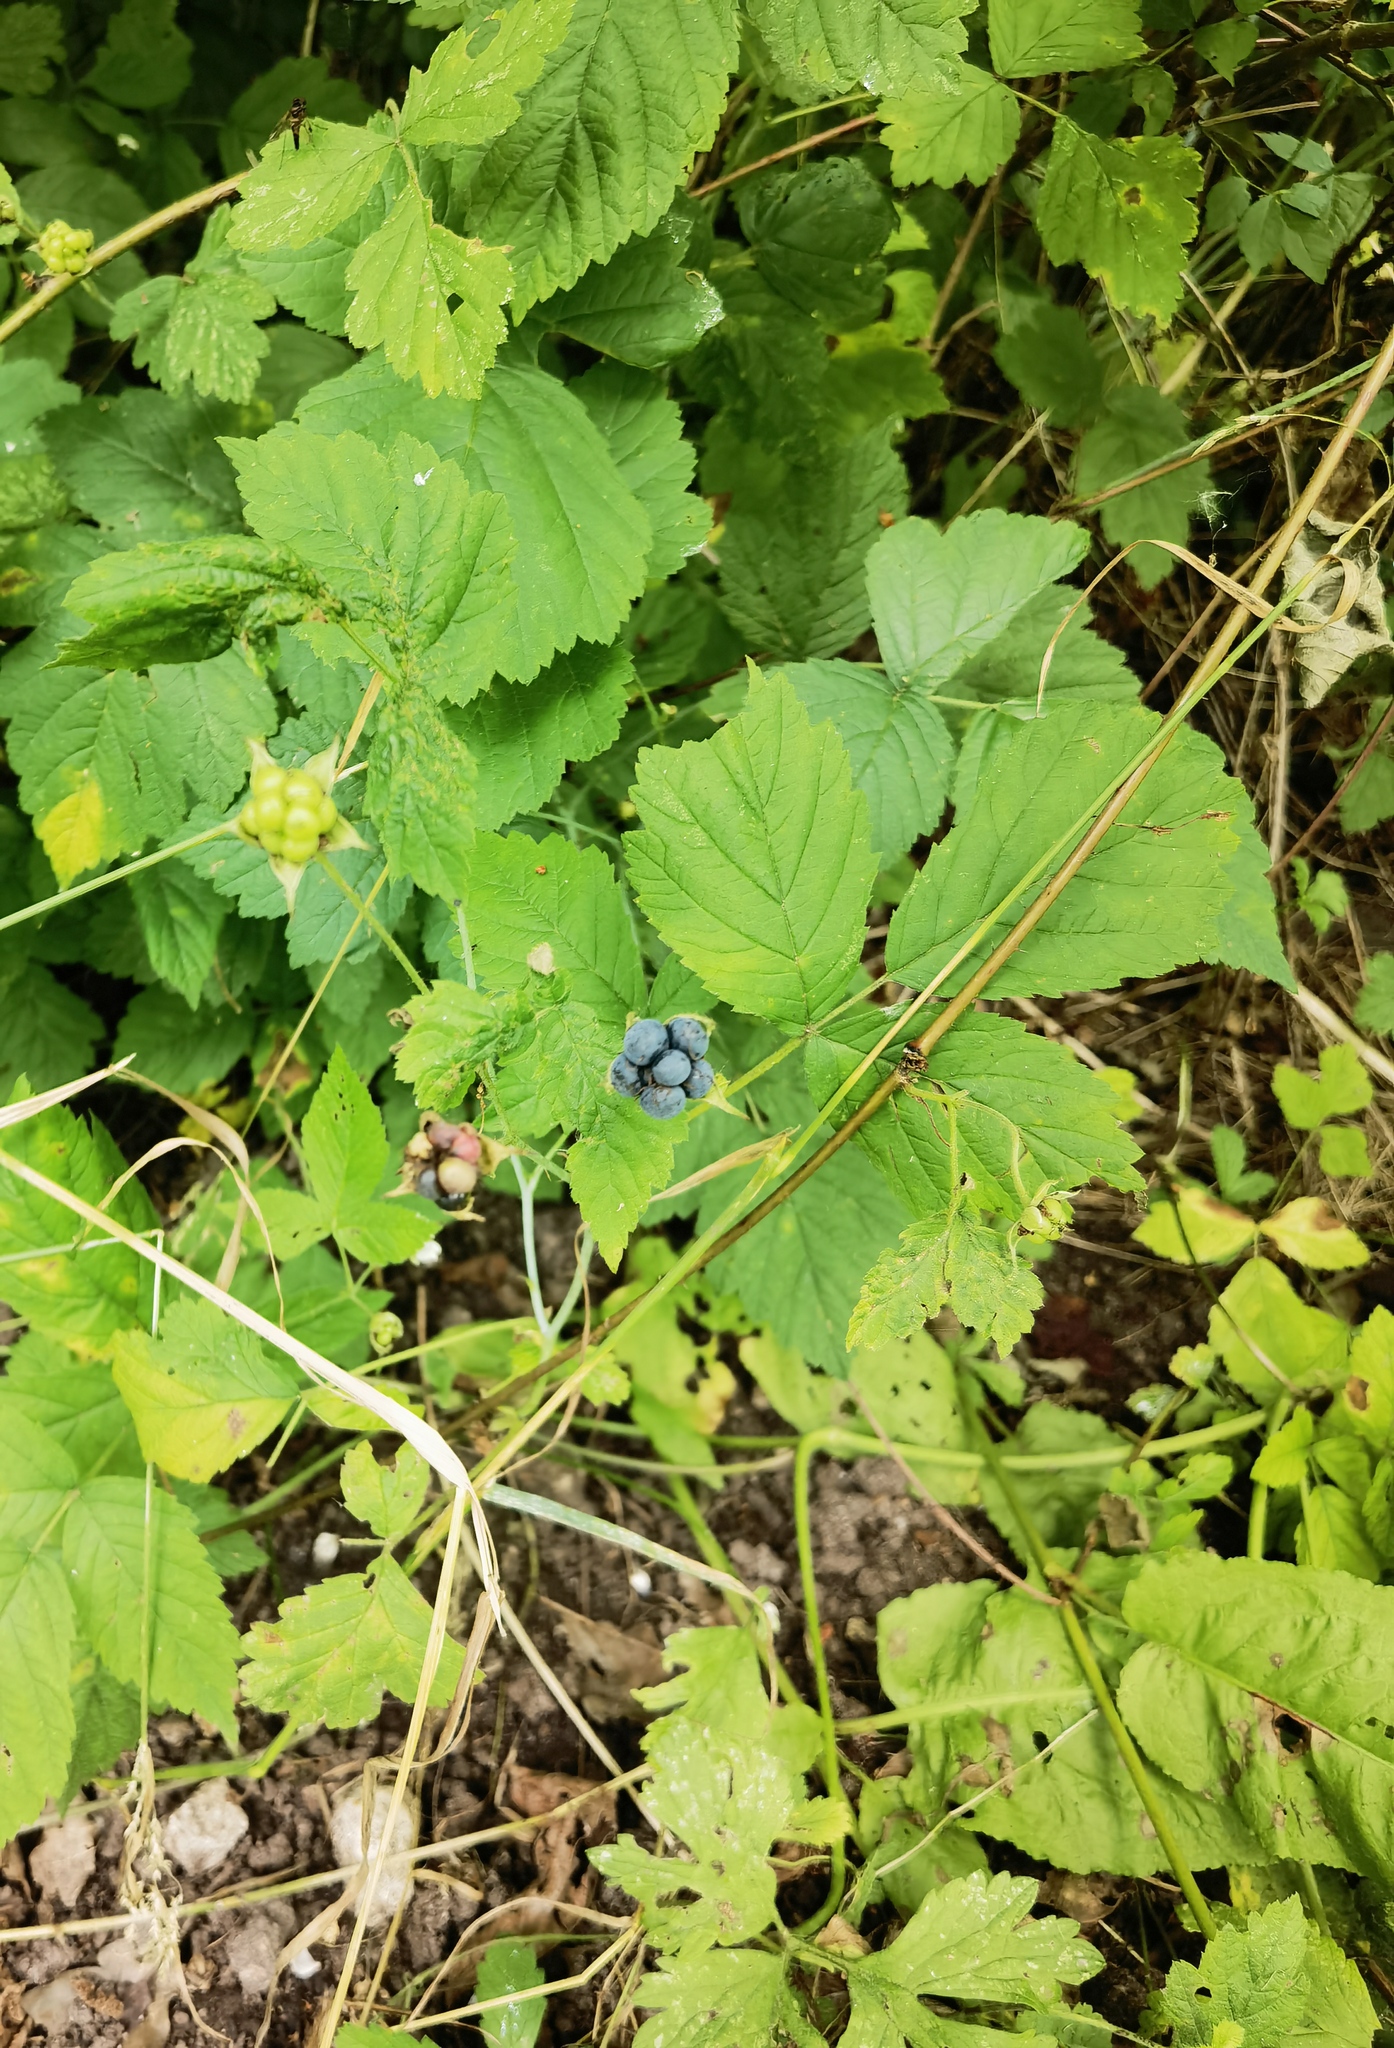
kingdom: Plantae
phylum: Tracheophyta
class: Magnoliopsida
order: Rosales
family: Rosaceae
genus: Rubus
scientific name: Rubus caesius
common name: Dewberry
